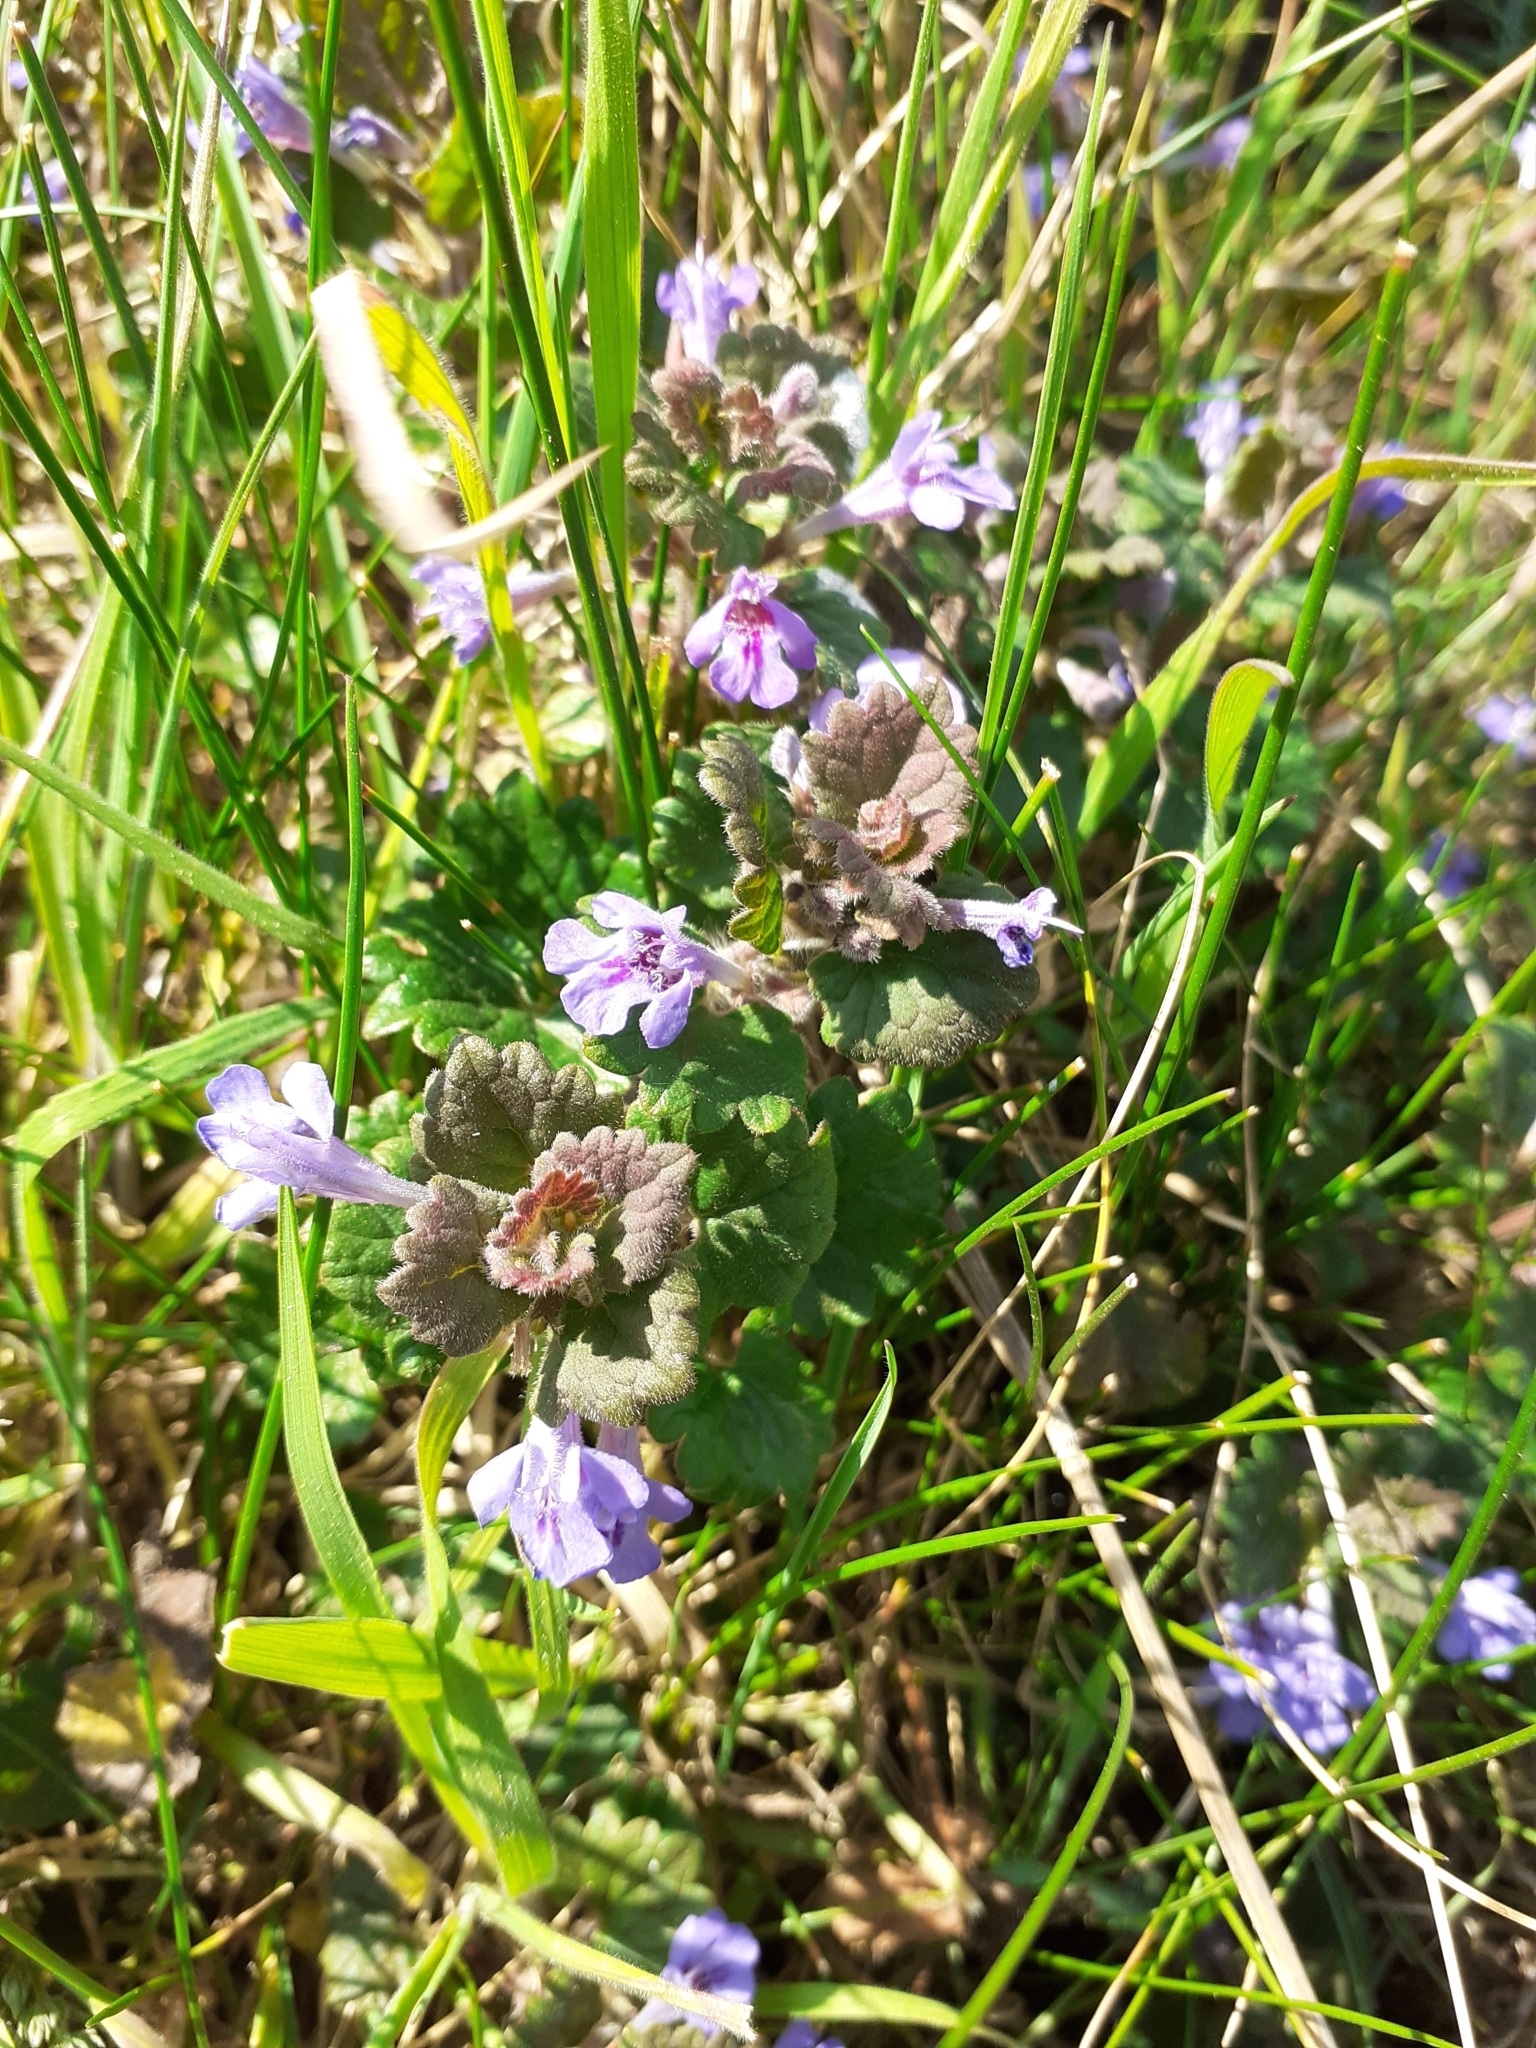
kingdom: Plantae
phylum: Tracheophyta
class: Magnoliopsida
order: Lamiales
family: Lamiaceae
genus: Glechoma
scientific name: Glechoma hederacea
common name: Ground ivy
